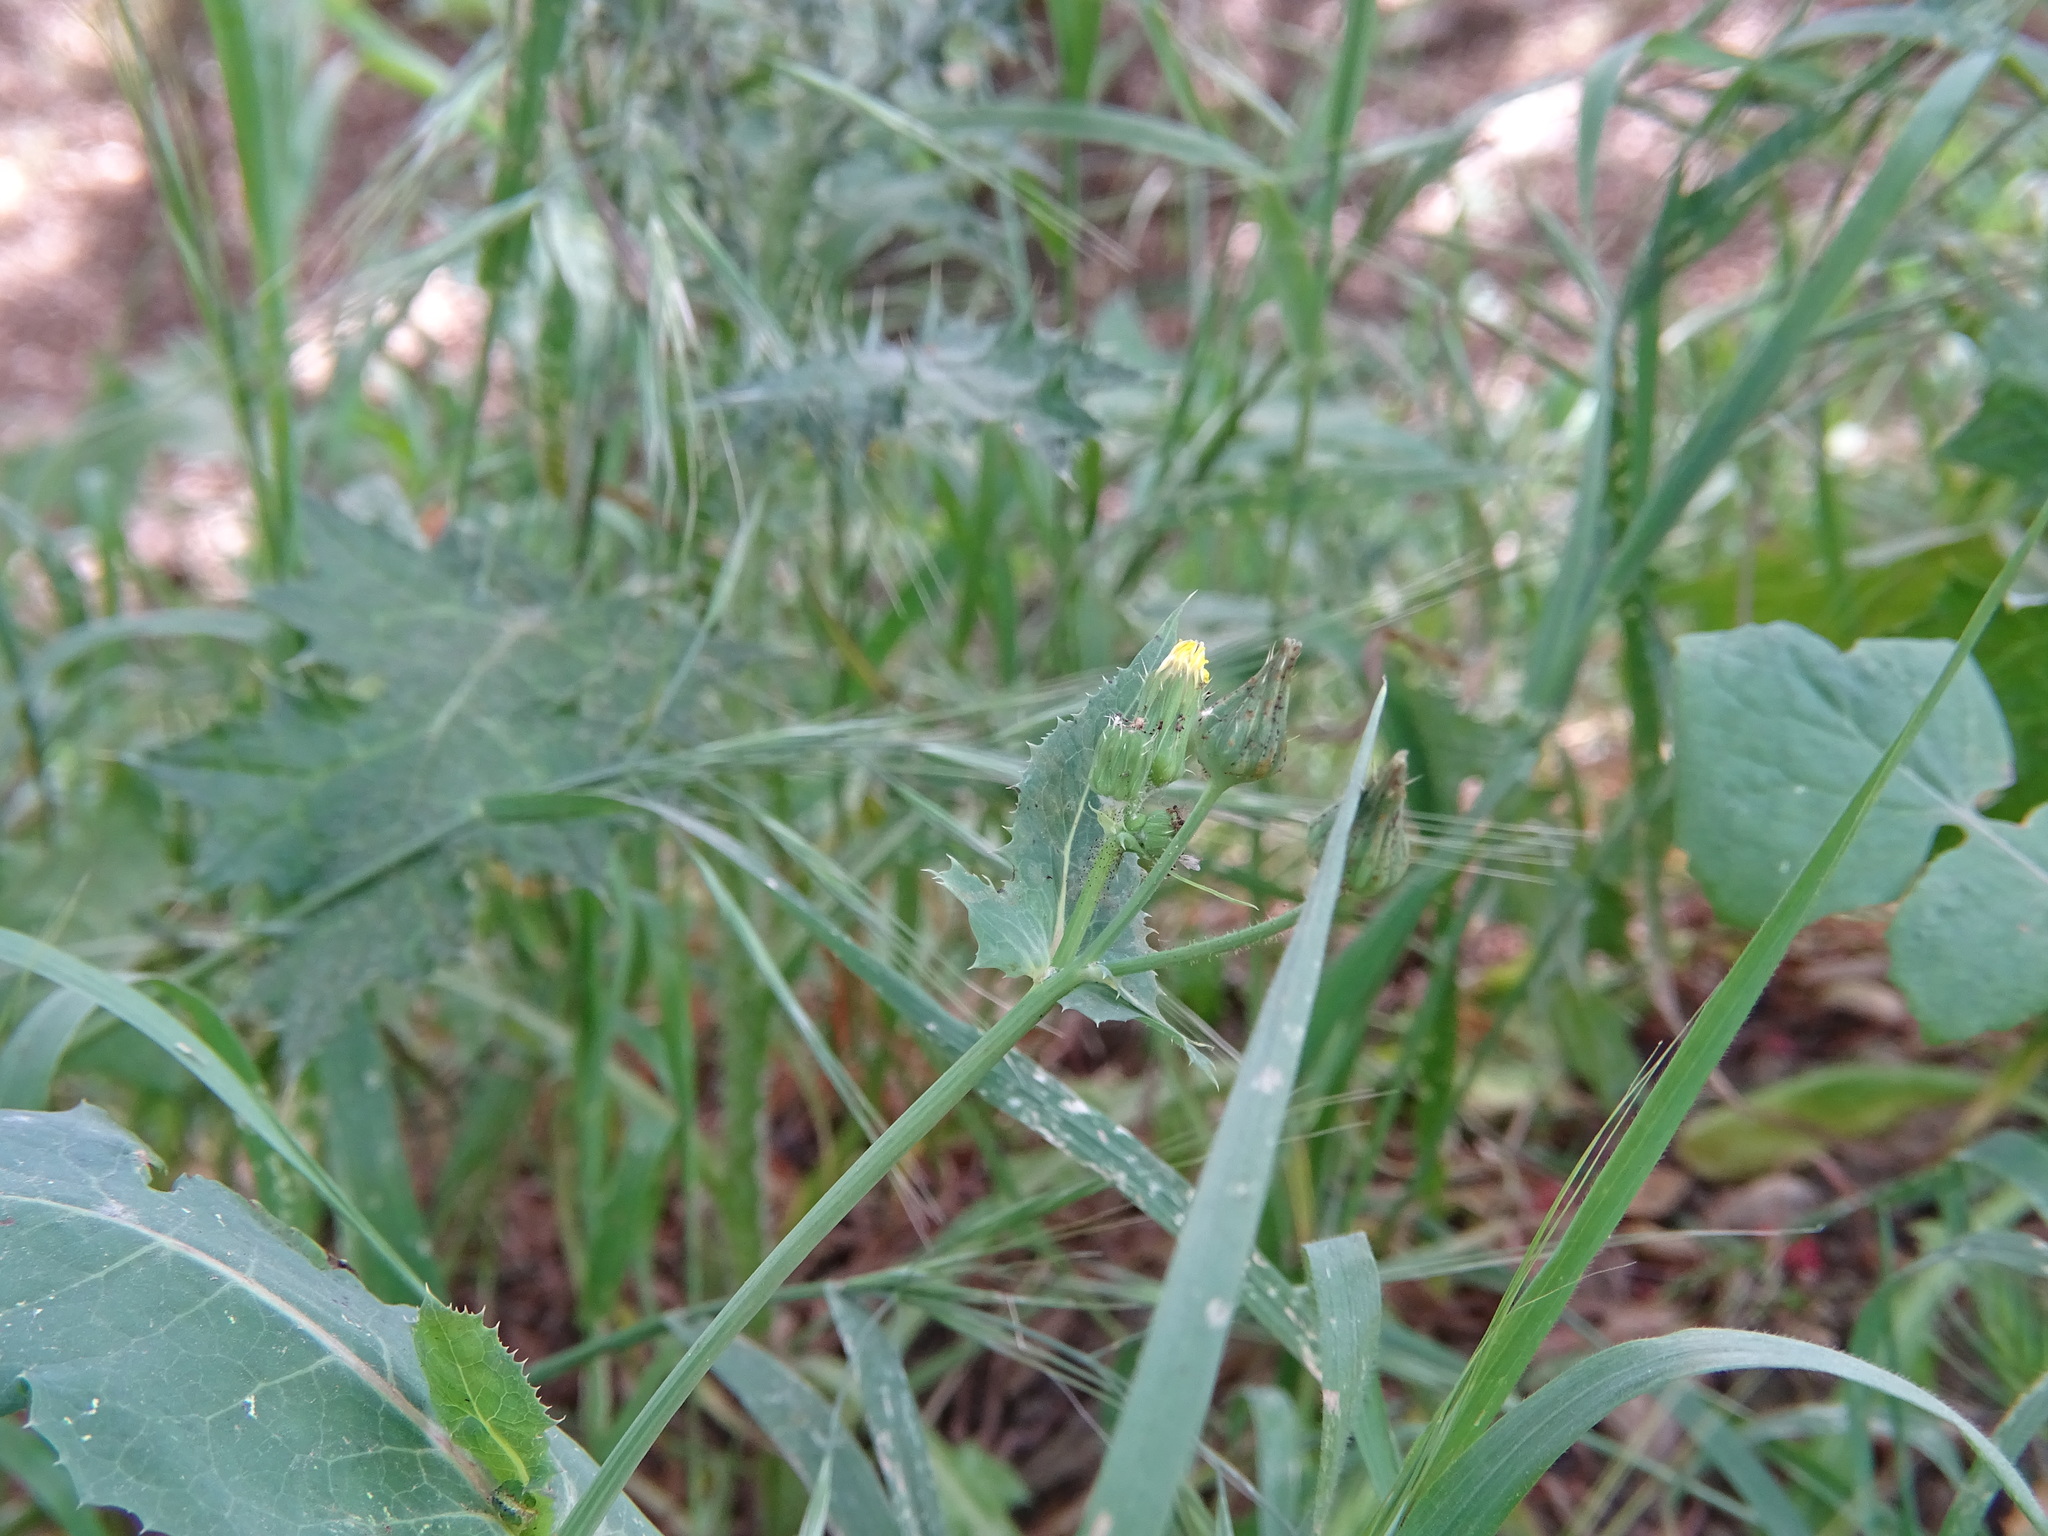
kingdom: Plantae
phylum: Tracheophyta
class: Magnoliopsida
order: Asterales
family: Asteraceae
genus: Sonchus
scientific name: Sonchus oleraceus
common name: Common sowthistle
